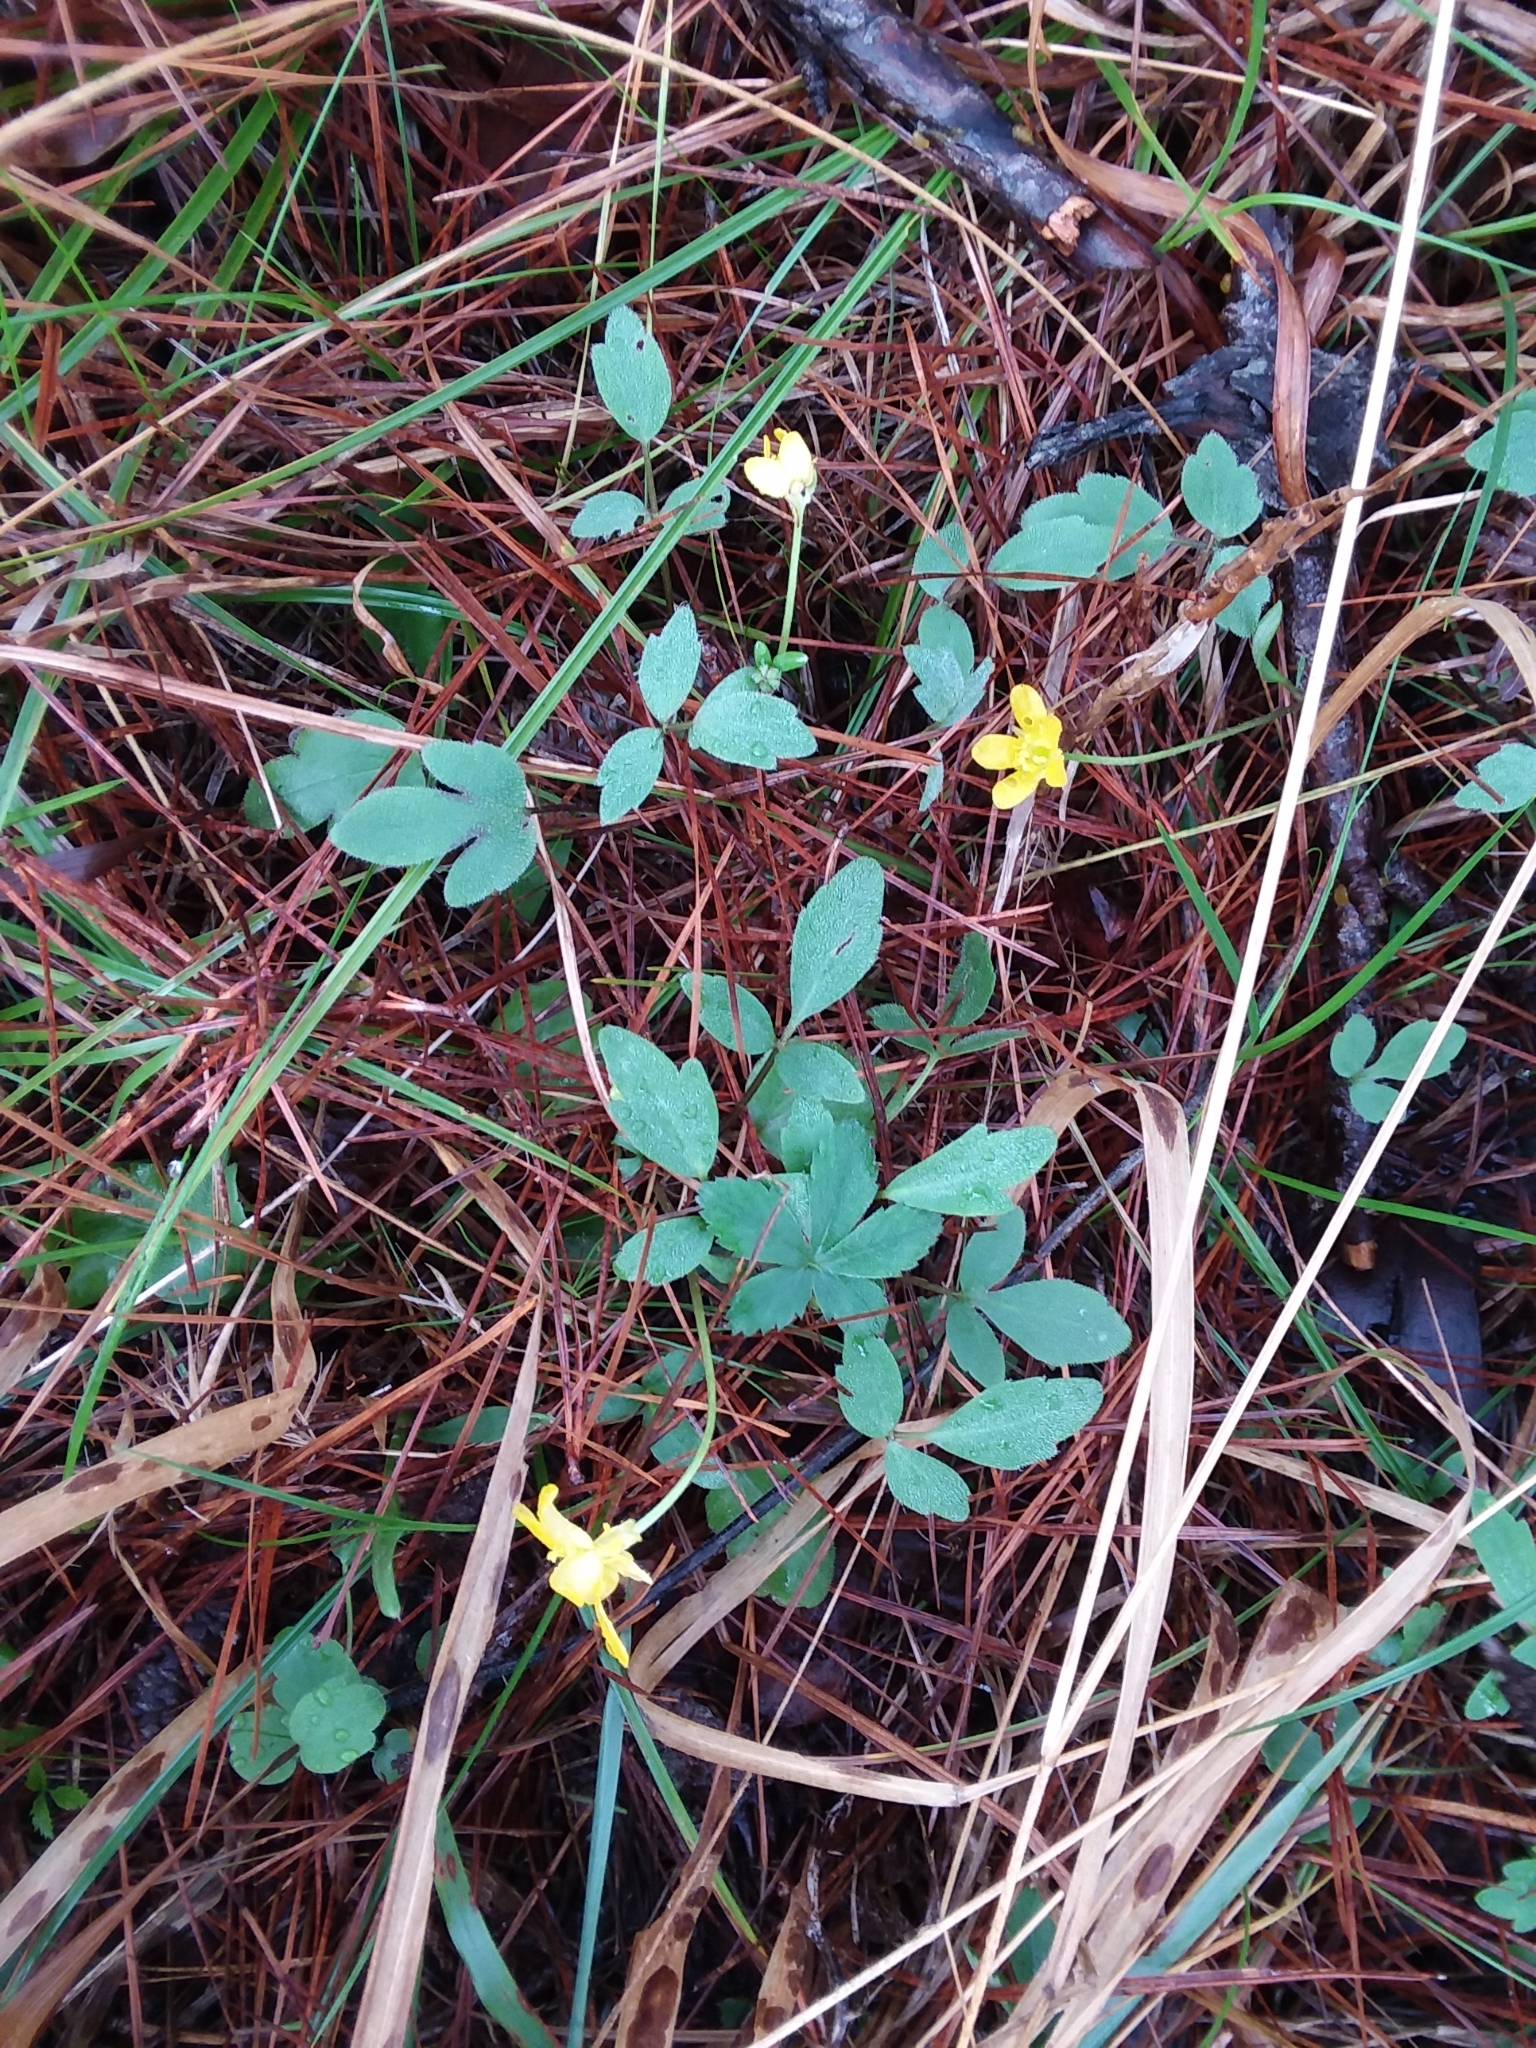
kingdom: Plantae
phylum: Tracheophyta
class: Magnoliopsida
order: Ranunculales
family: Ranunculaceae
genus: Ranunculus
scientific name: Ranunculus fascicularis
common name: Early buttercup
